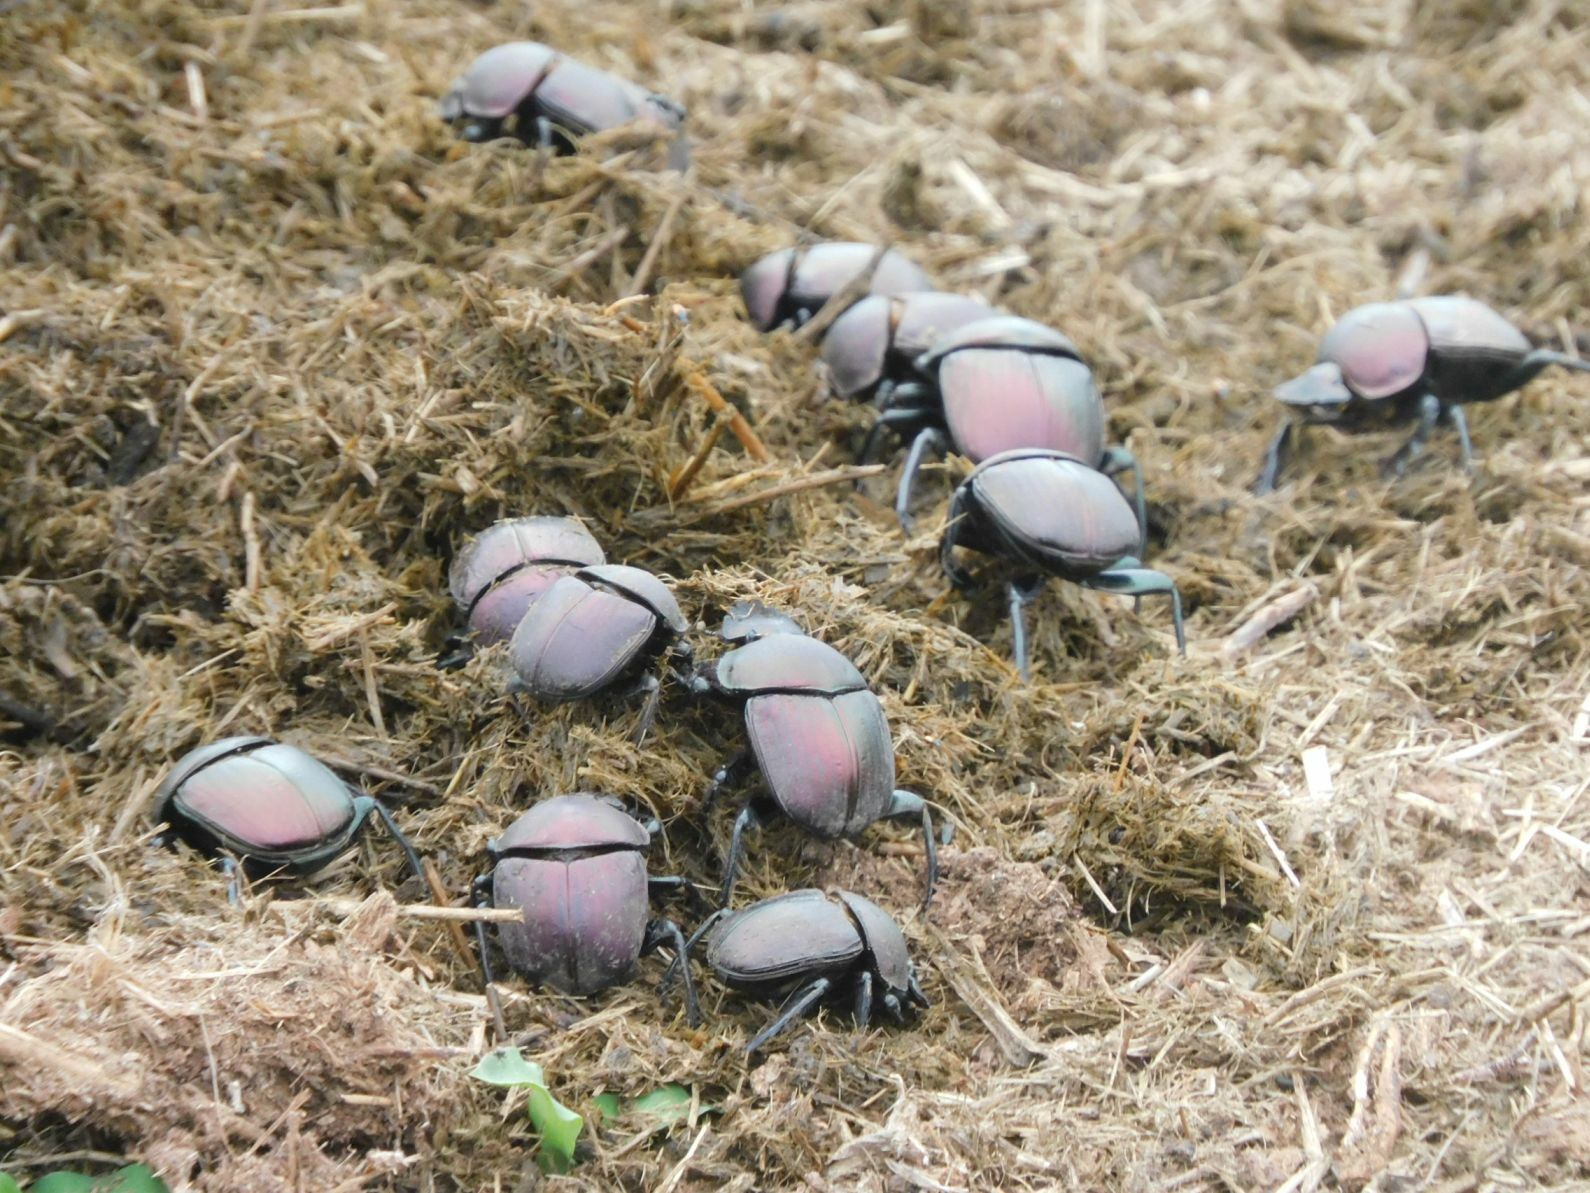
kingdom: Animalia
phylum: Arthropoda
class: Insecta
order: Coleoptera
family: Scarabaeidae
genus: Kheper
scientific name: Kheper nigroaeneus
